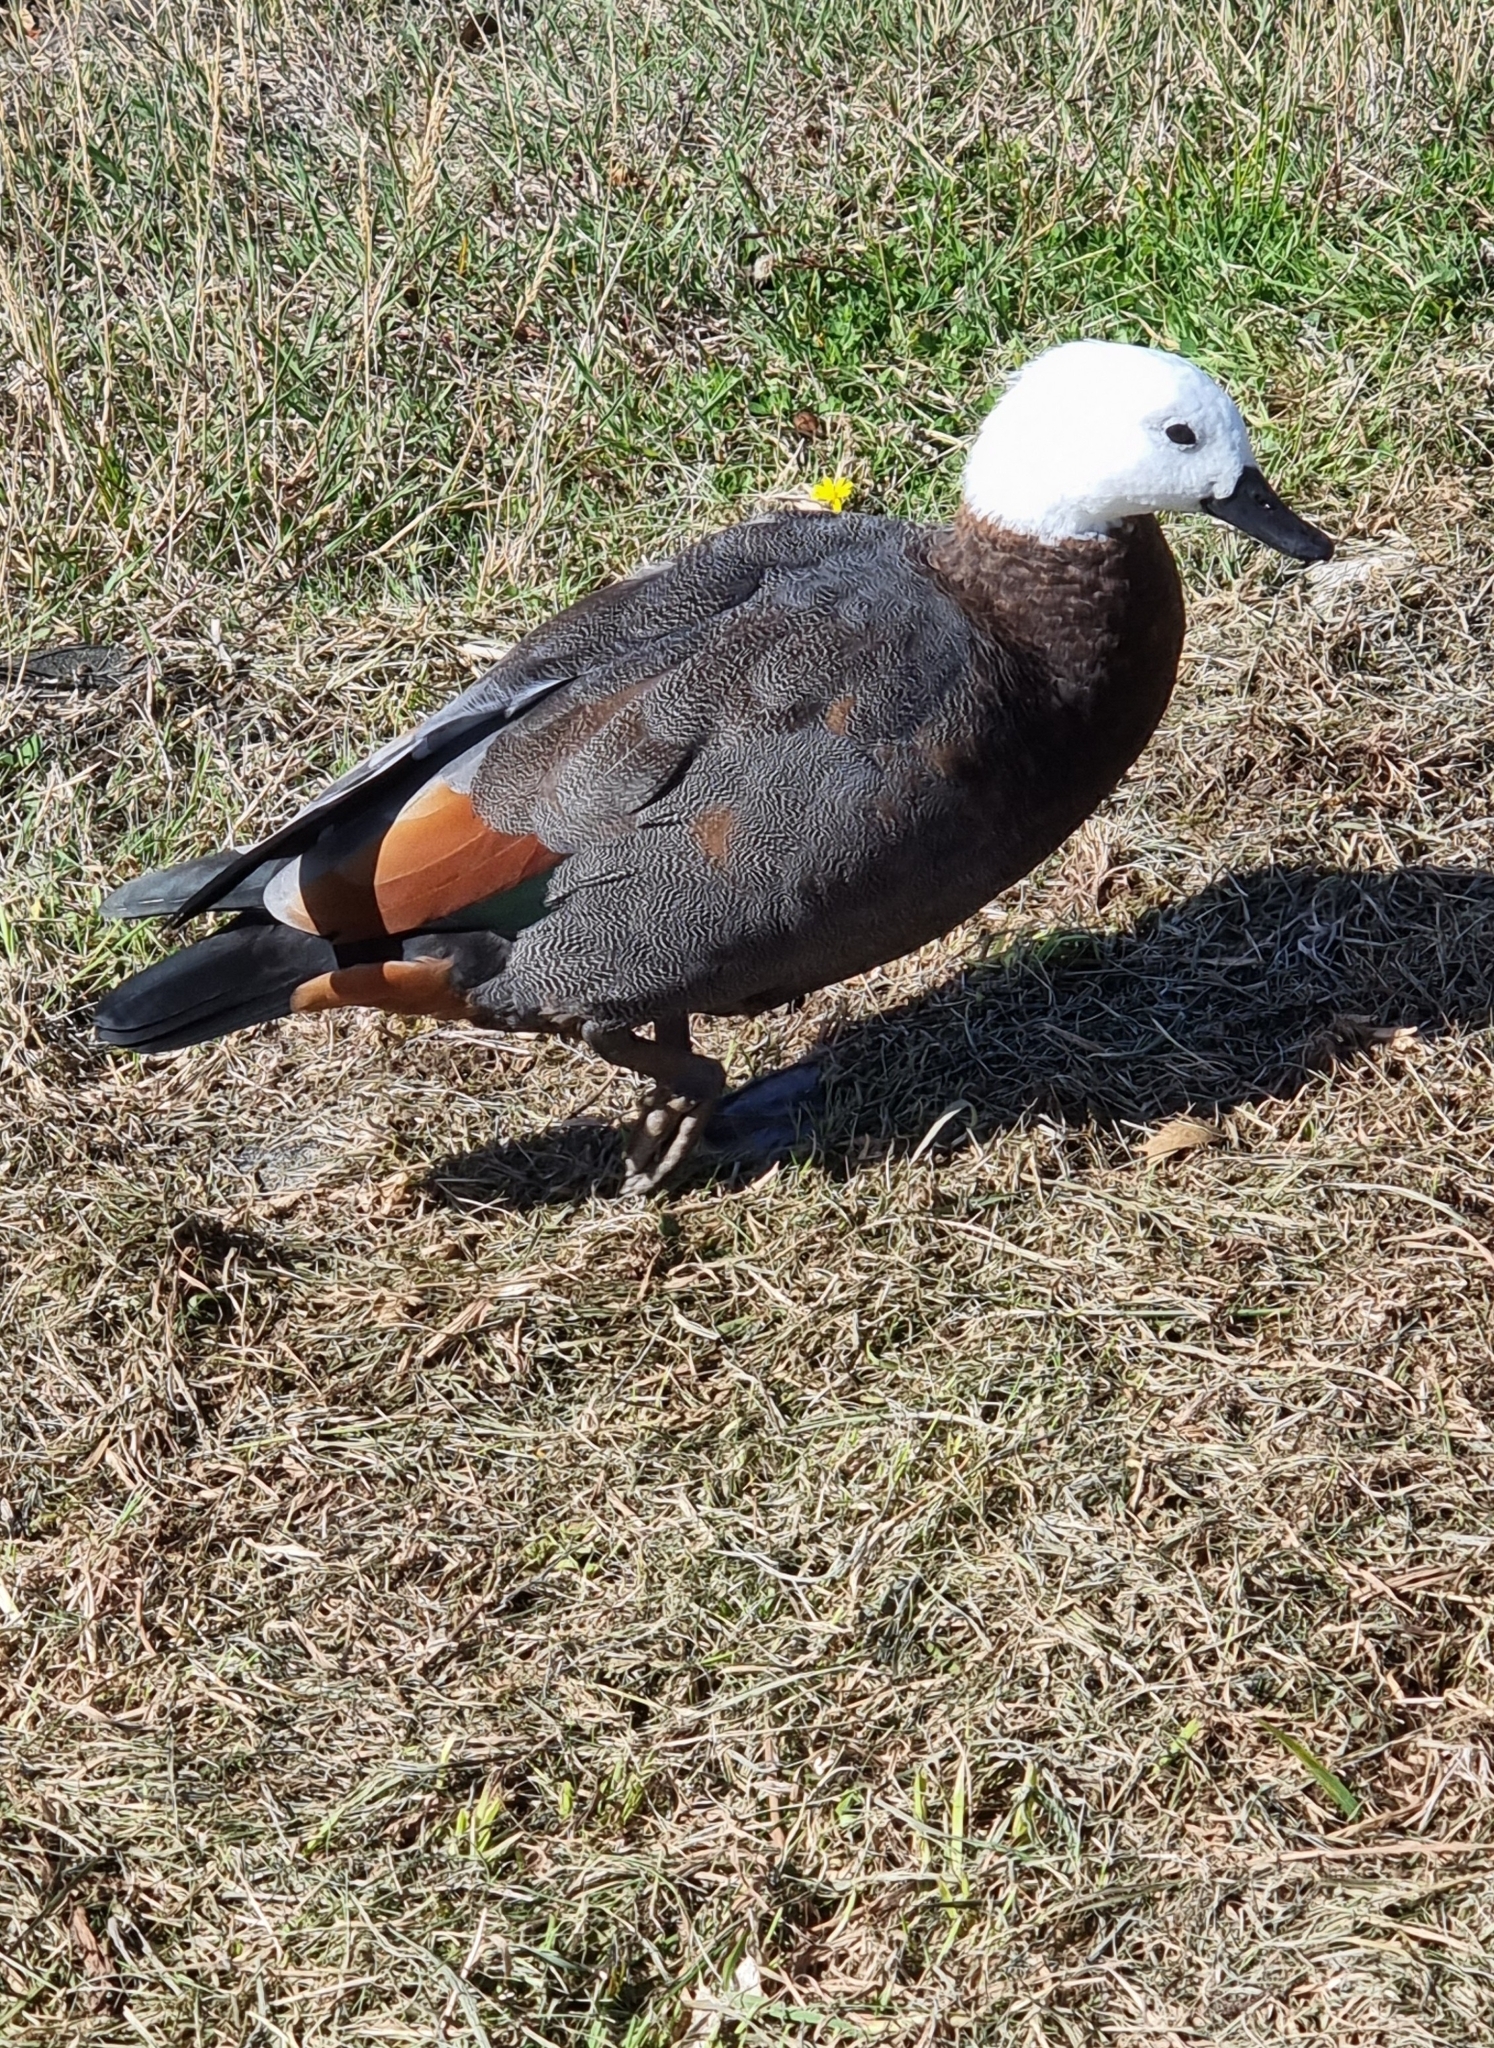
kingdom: Animalia
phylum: Chordata
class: Aves
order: Anseriformes
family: Anatidae
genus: Tadorna
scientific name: Tadorna variegata
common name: Paradise shelduck
